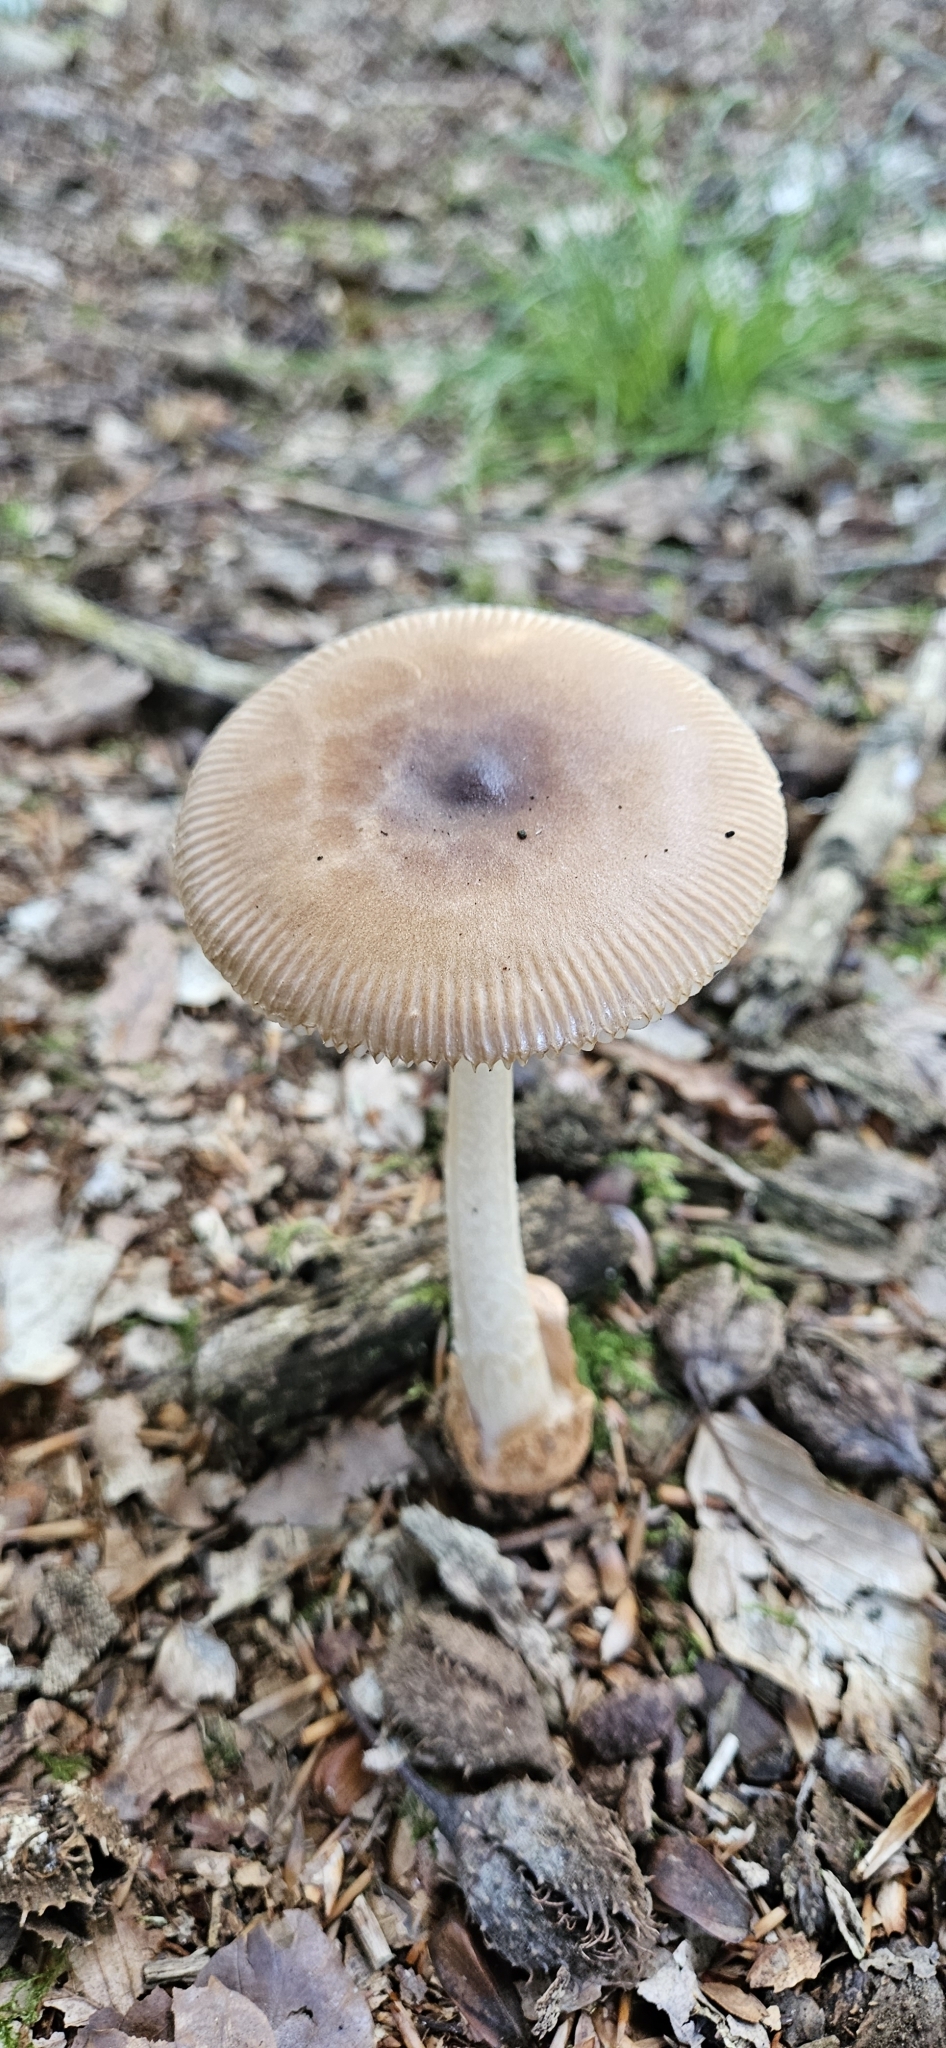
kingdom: Fungi
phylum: Basidiomycota
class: Agaricomycetes
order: Agaricales
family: Amanitaceae
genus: Amanita
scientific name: Amanita fulva
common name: Tawny grisette
